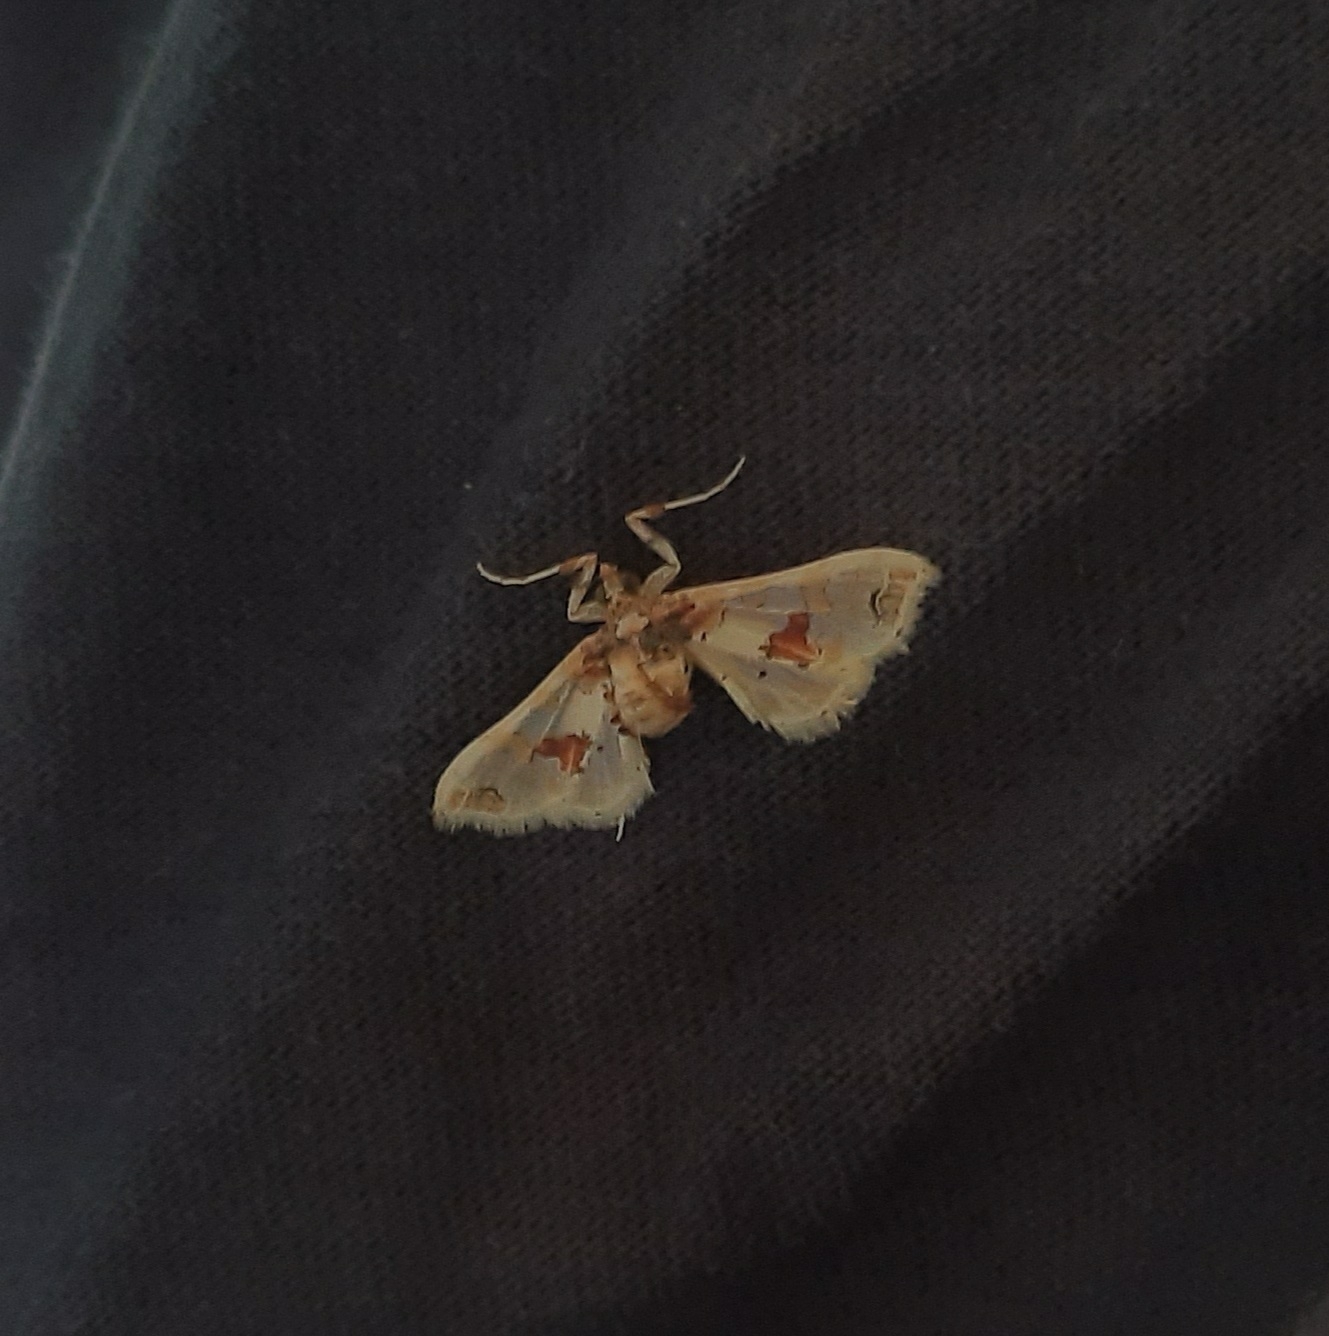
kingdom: Animalia
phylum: Arthropoda
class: Insecta
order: Lepidoptera
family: Crambidae
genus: Leucinodes
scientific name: Leucinodes orbonalis
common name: Aubergine pearl
